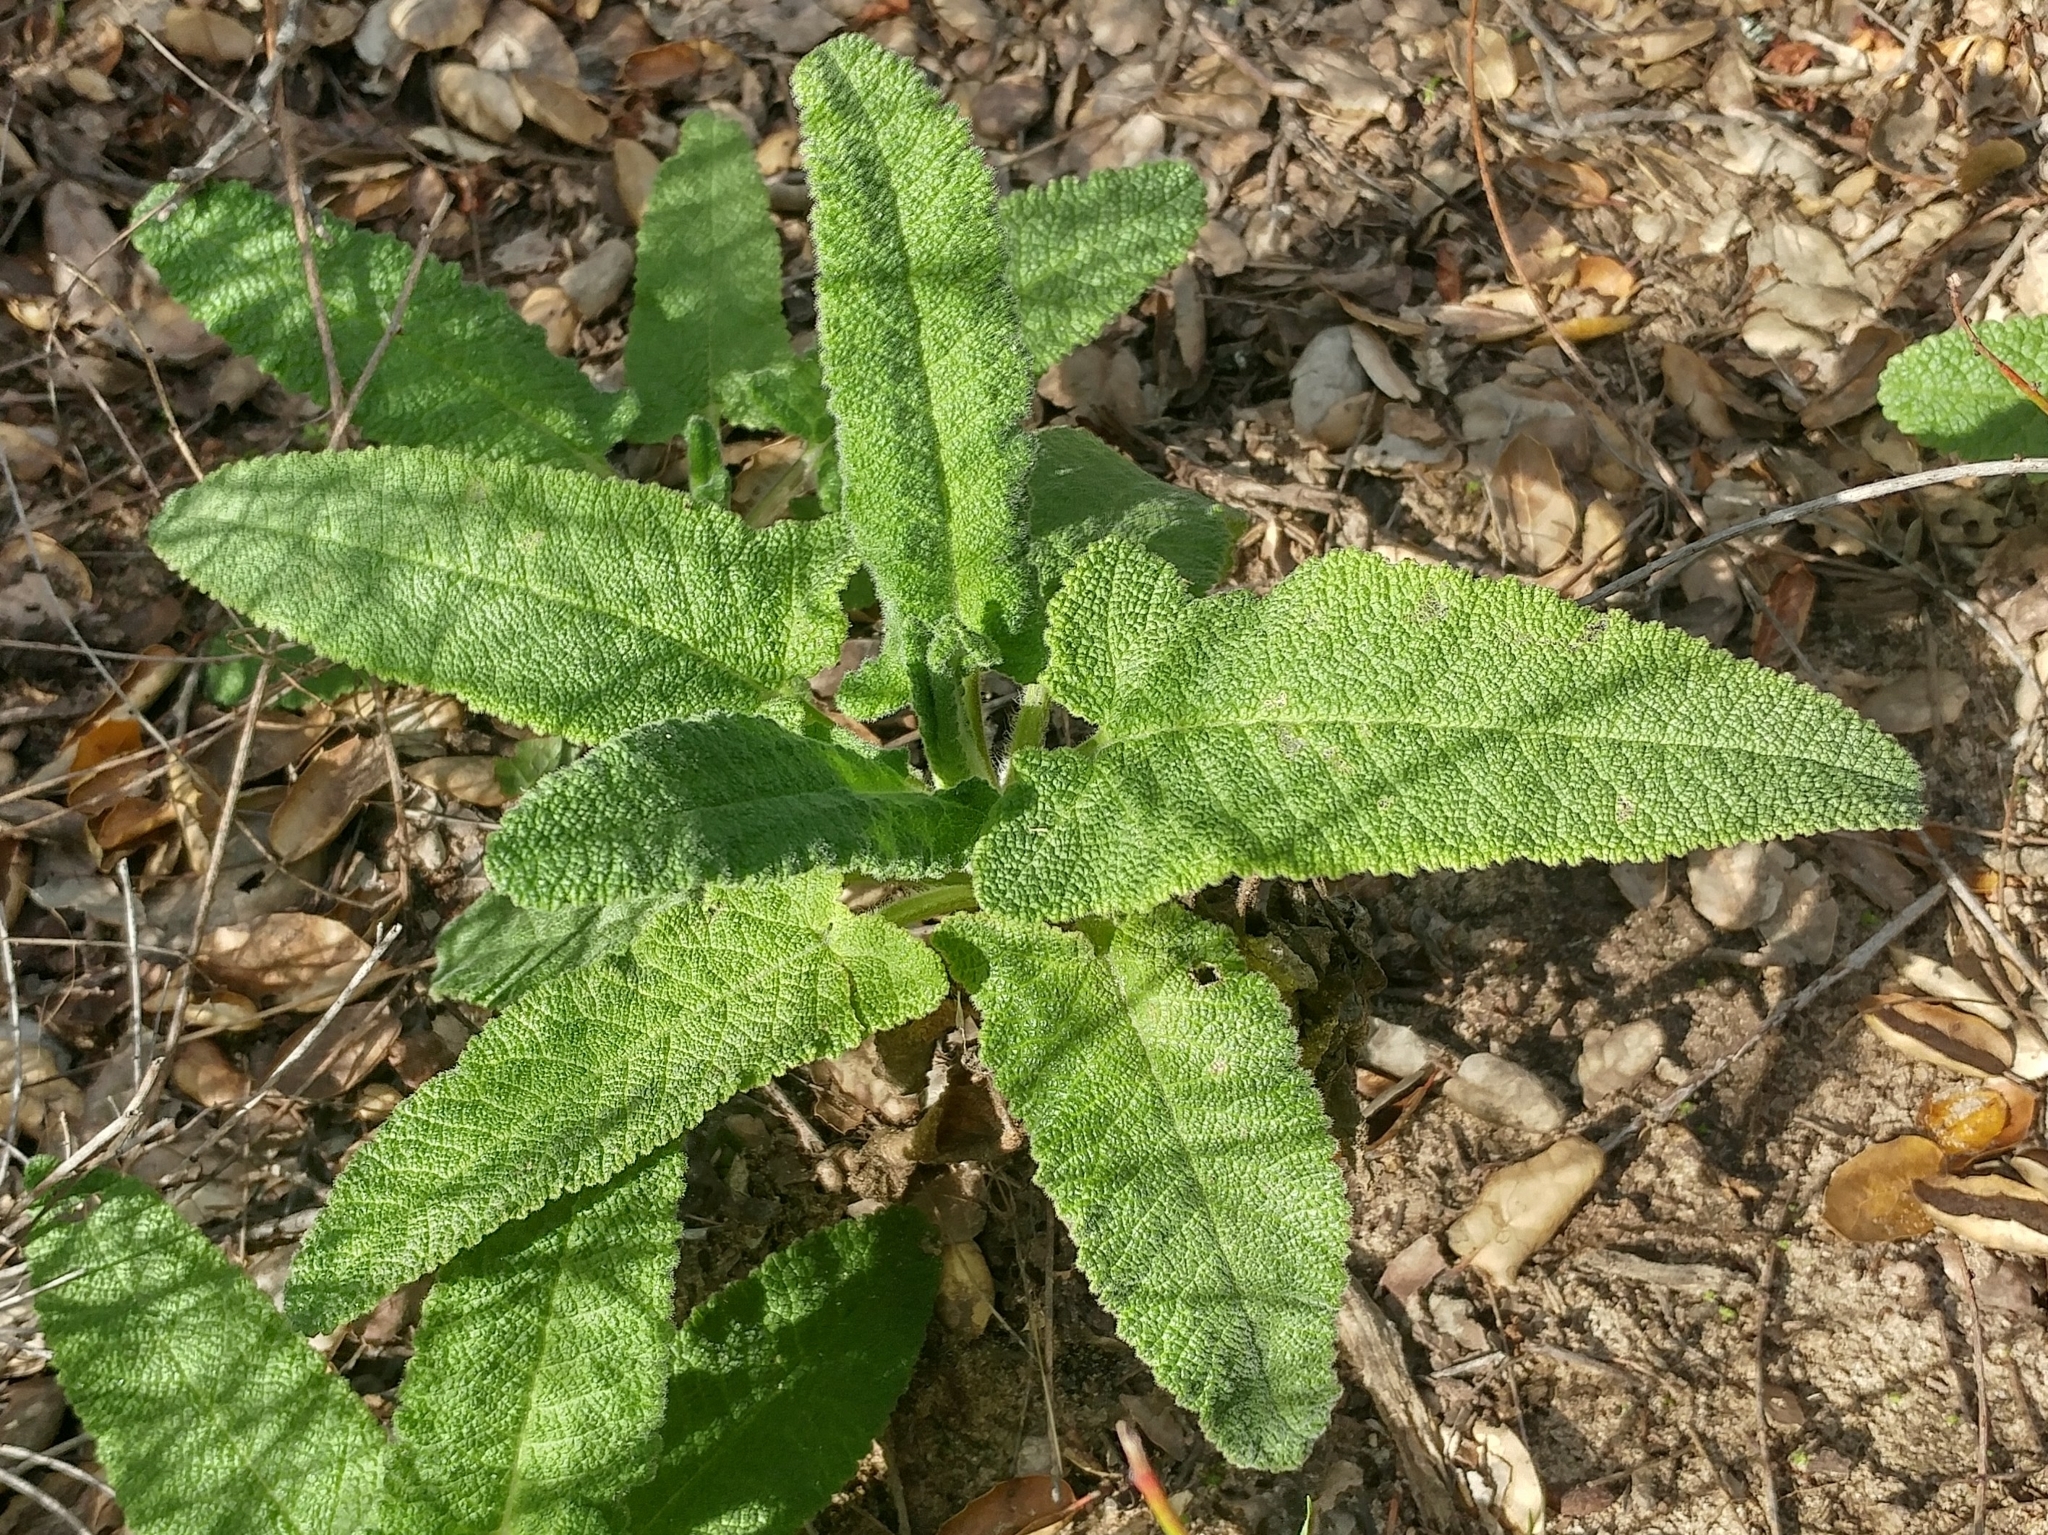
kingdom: Plantae
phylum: Tracheophyta
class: Magnoliopsida
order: Lamiales
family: Lamiaceae
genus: Salvia
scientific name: Salvia spathacea
